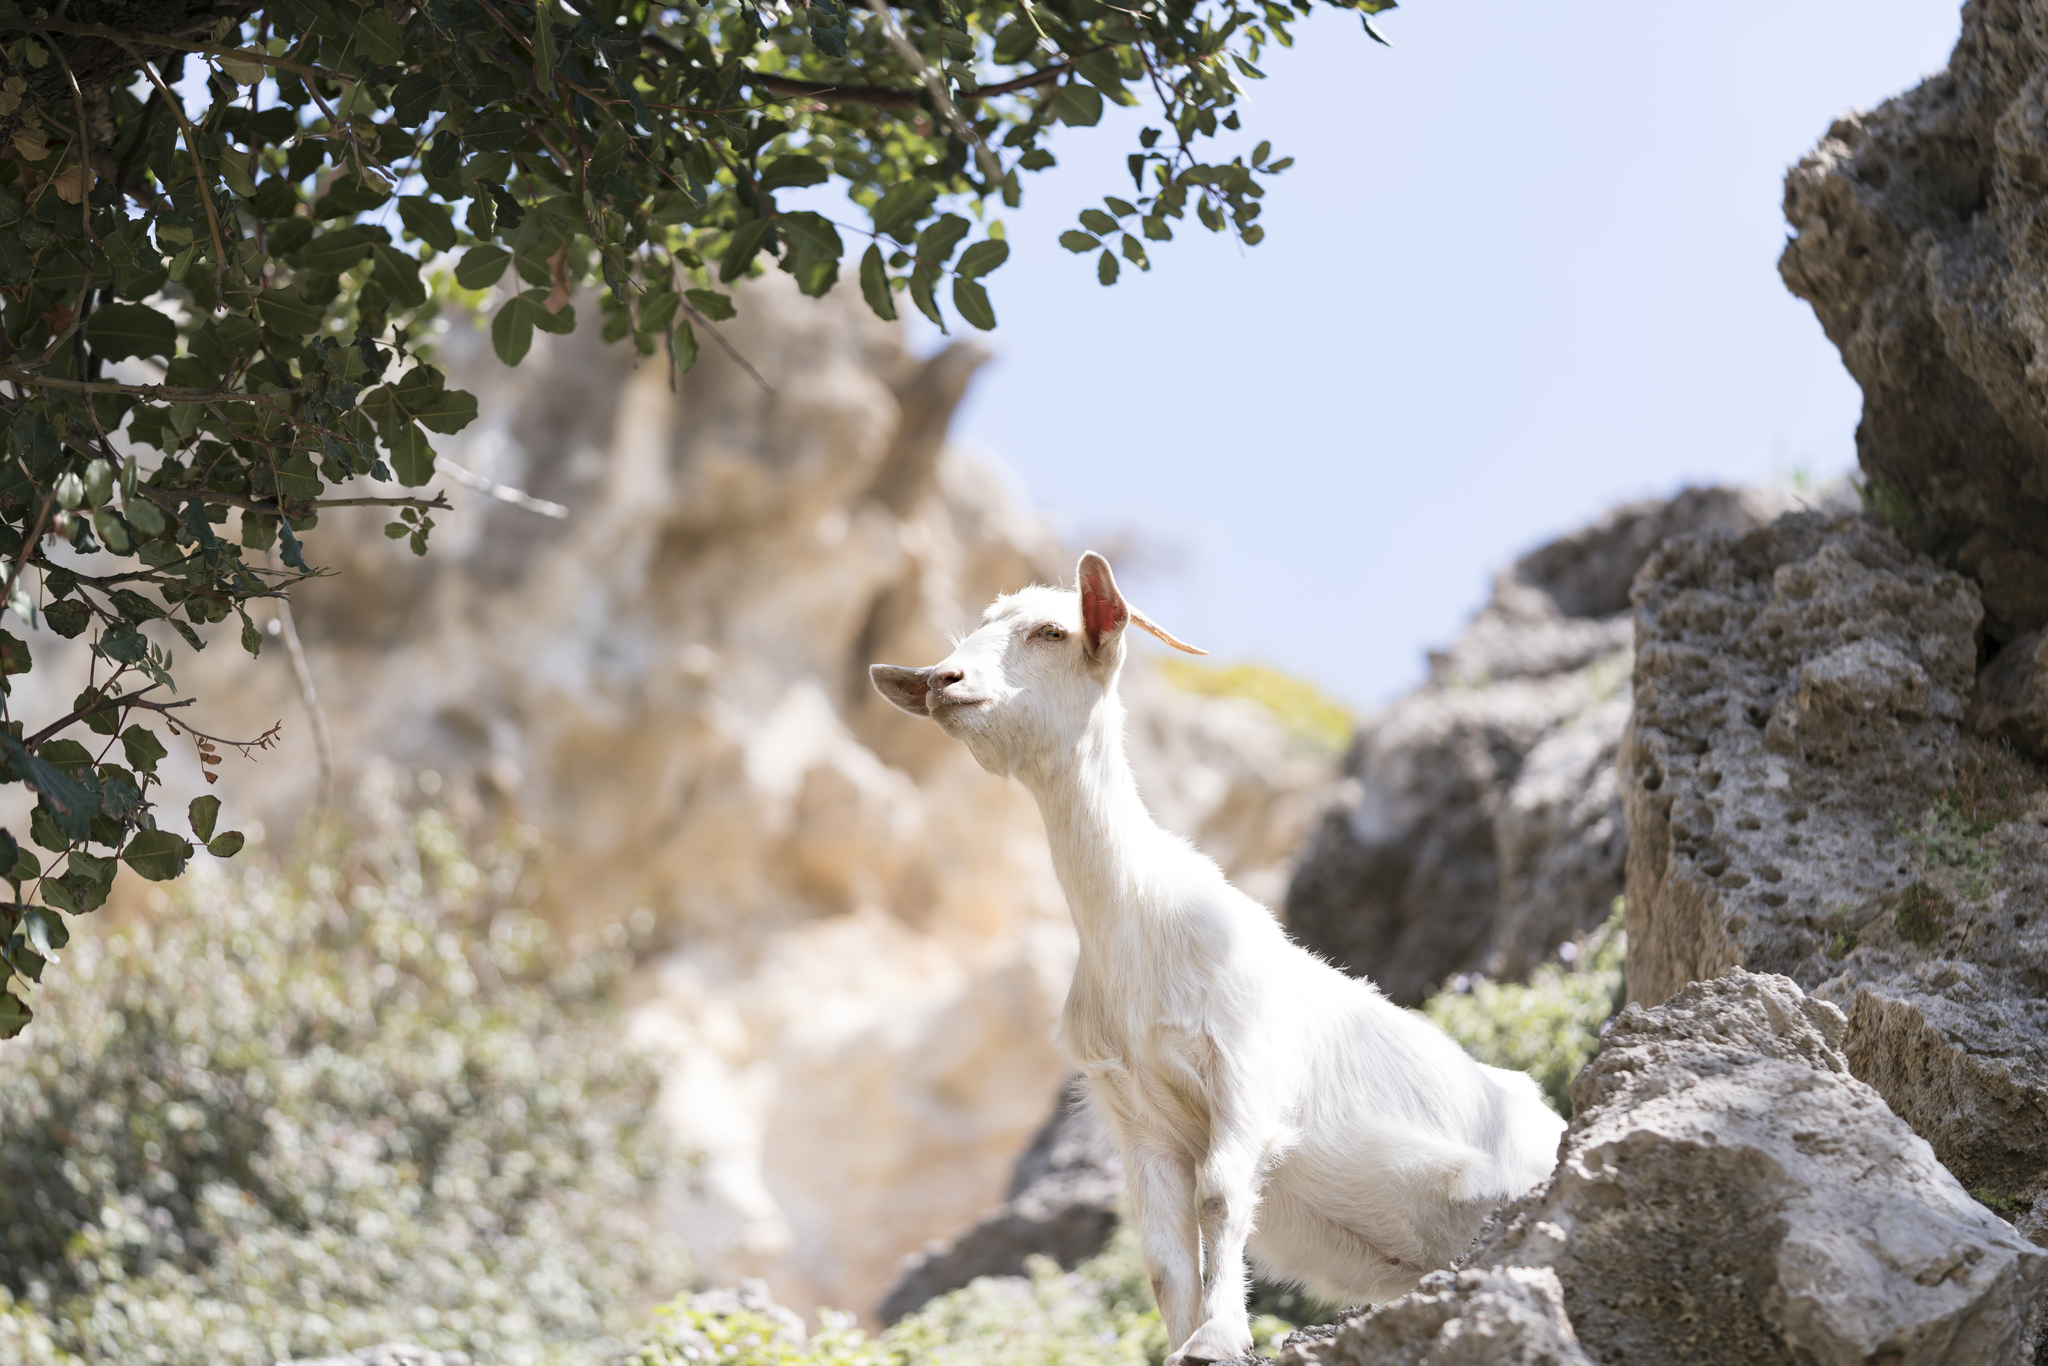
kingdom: Animalia
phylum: Chordata
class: Mammalia
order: Artiodactyla
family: Bovidae
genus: Capra
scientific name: Capra hircus
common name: Domestic goat
